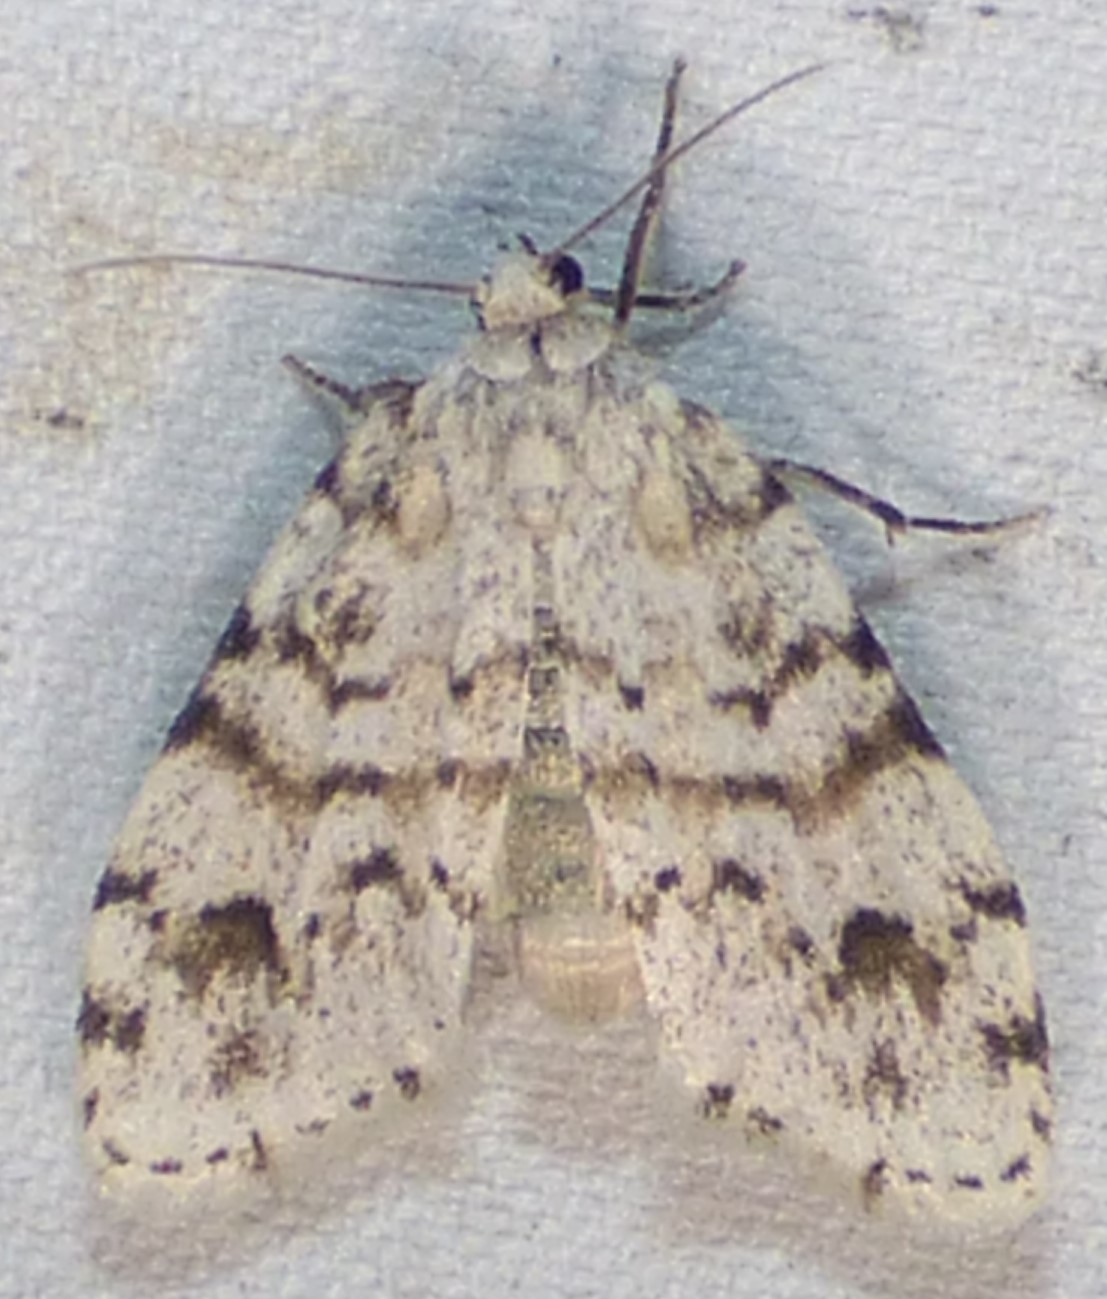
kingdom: Animalia
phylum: Arthropoda
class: Insecta
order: Lepidoptera
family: Erebidae
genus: Clemensia
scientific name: Clemensia albata
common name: Little white lichen moth
